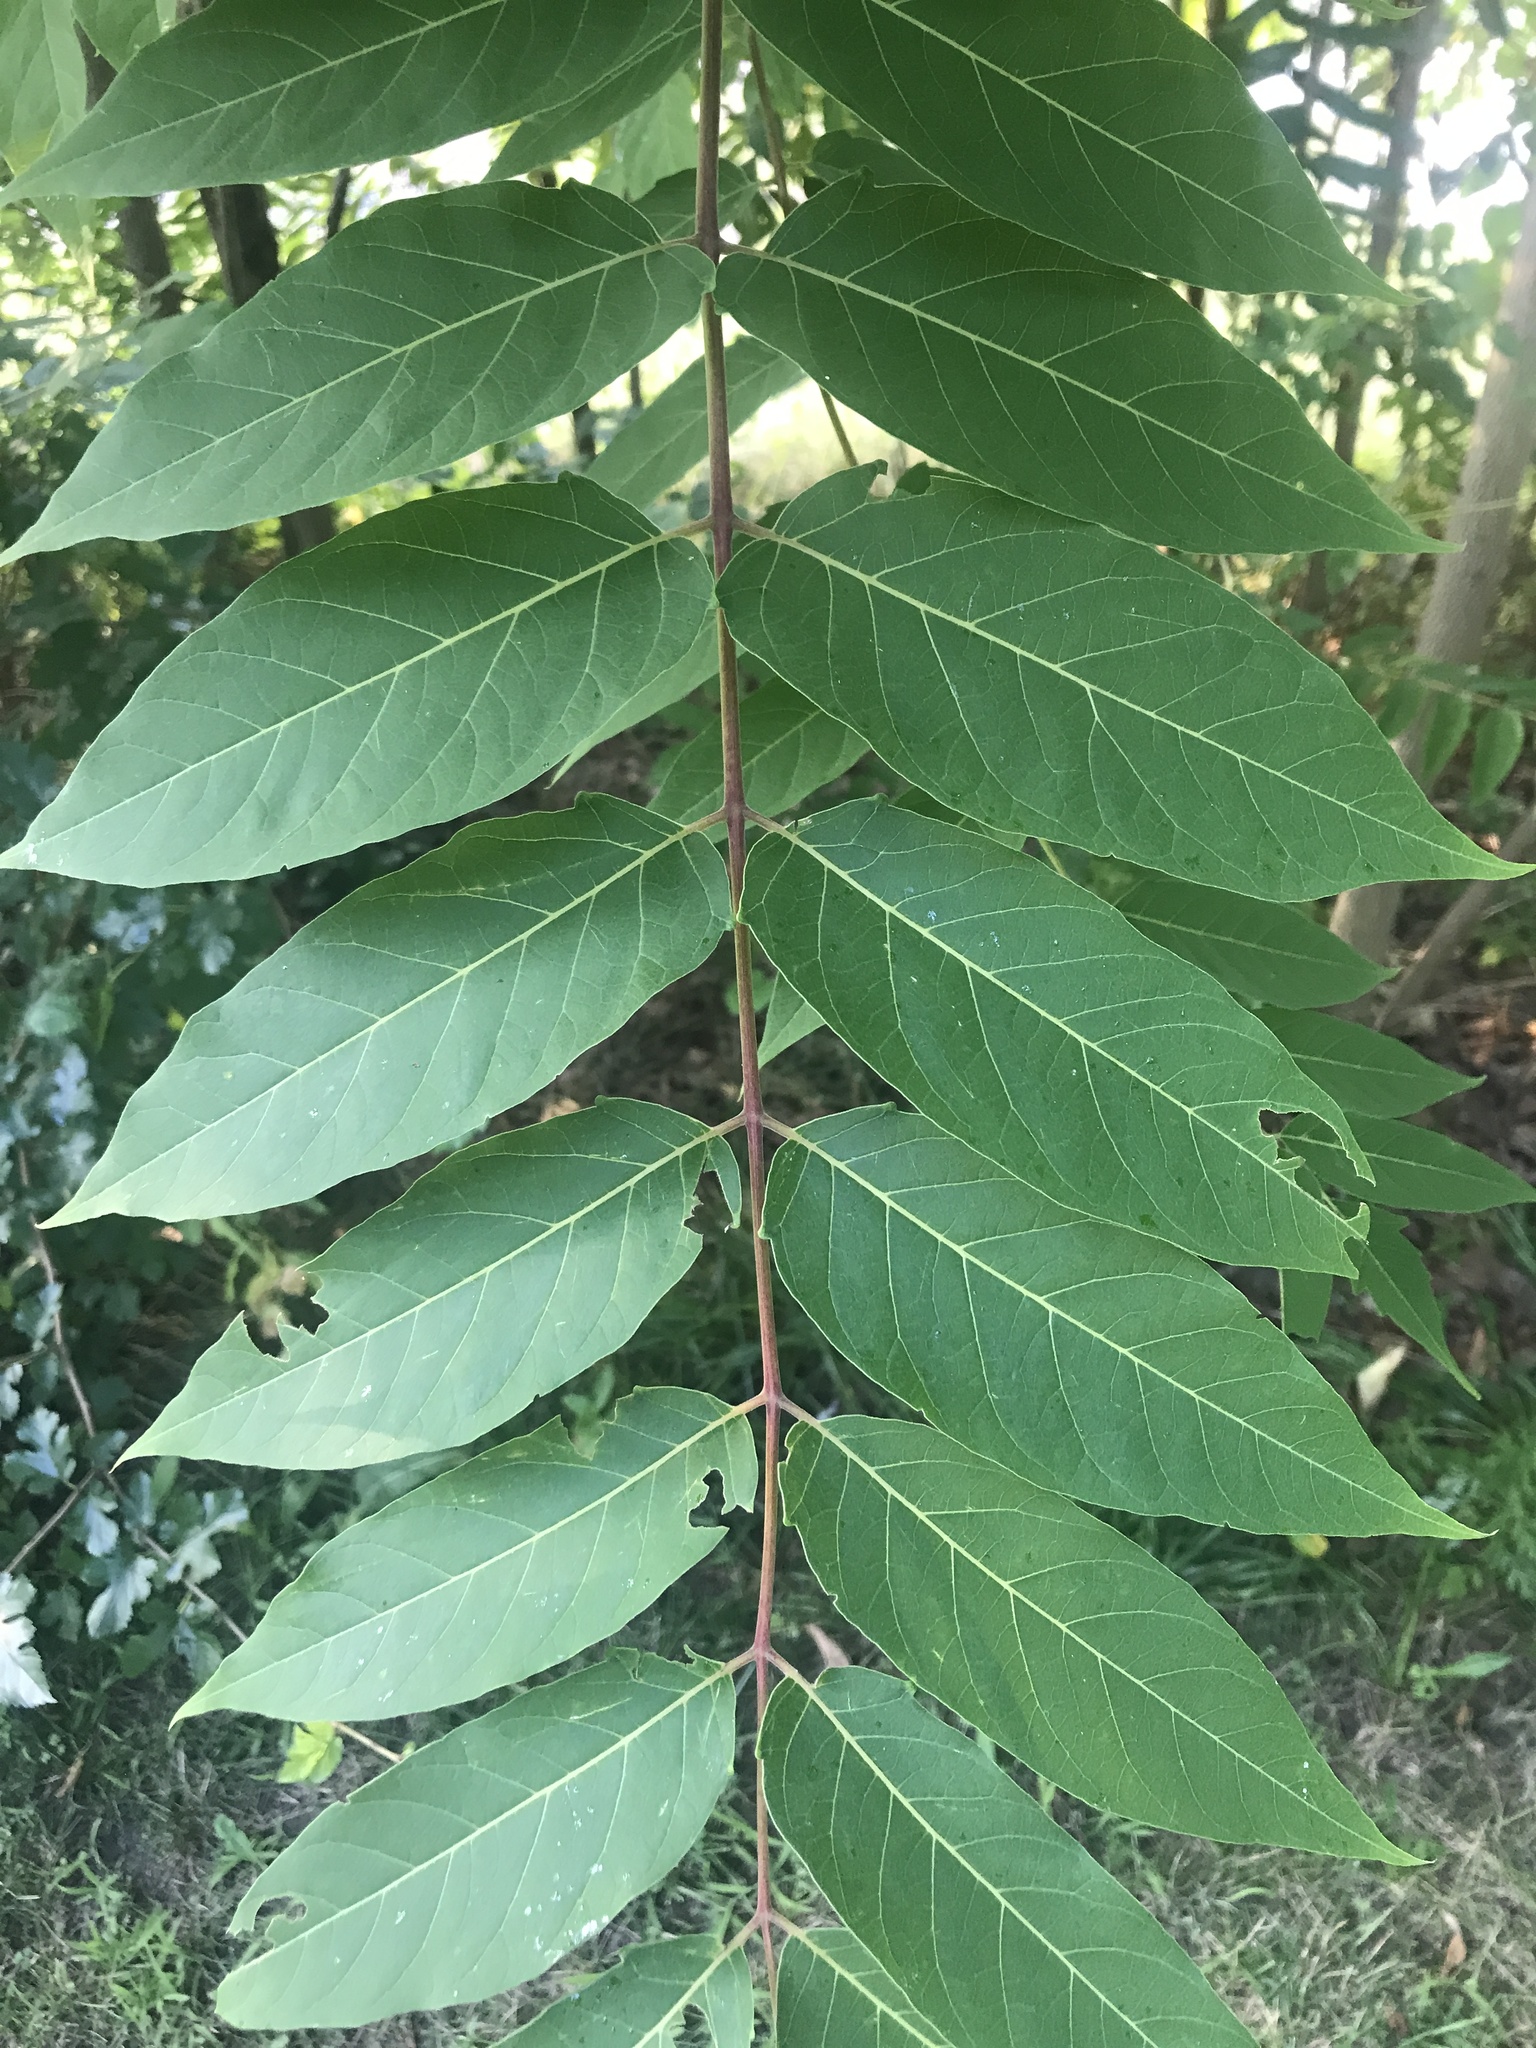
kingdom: Plantae
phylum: Tracheophyta
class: Magnoliopsida
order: Sapindales
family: Simaroubaceae
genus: Ailanthus
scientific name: Ailanthus altissima
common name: Tree-of-heaven
